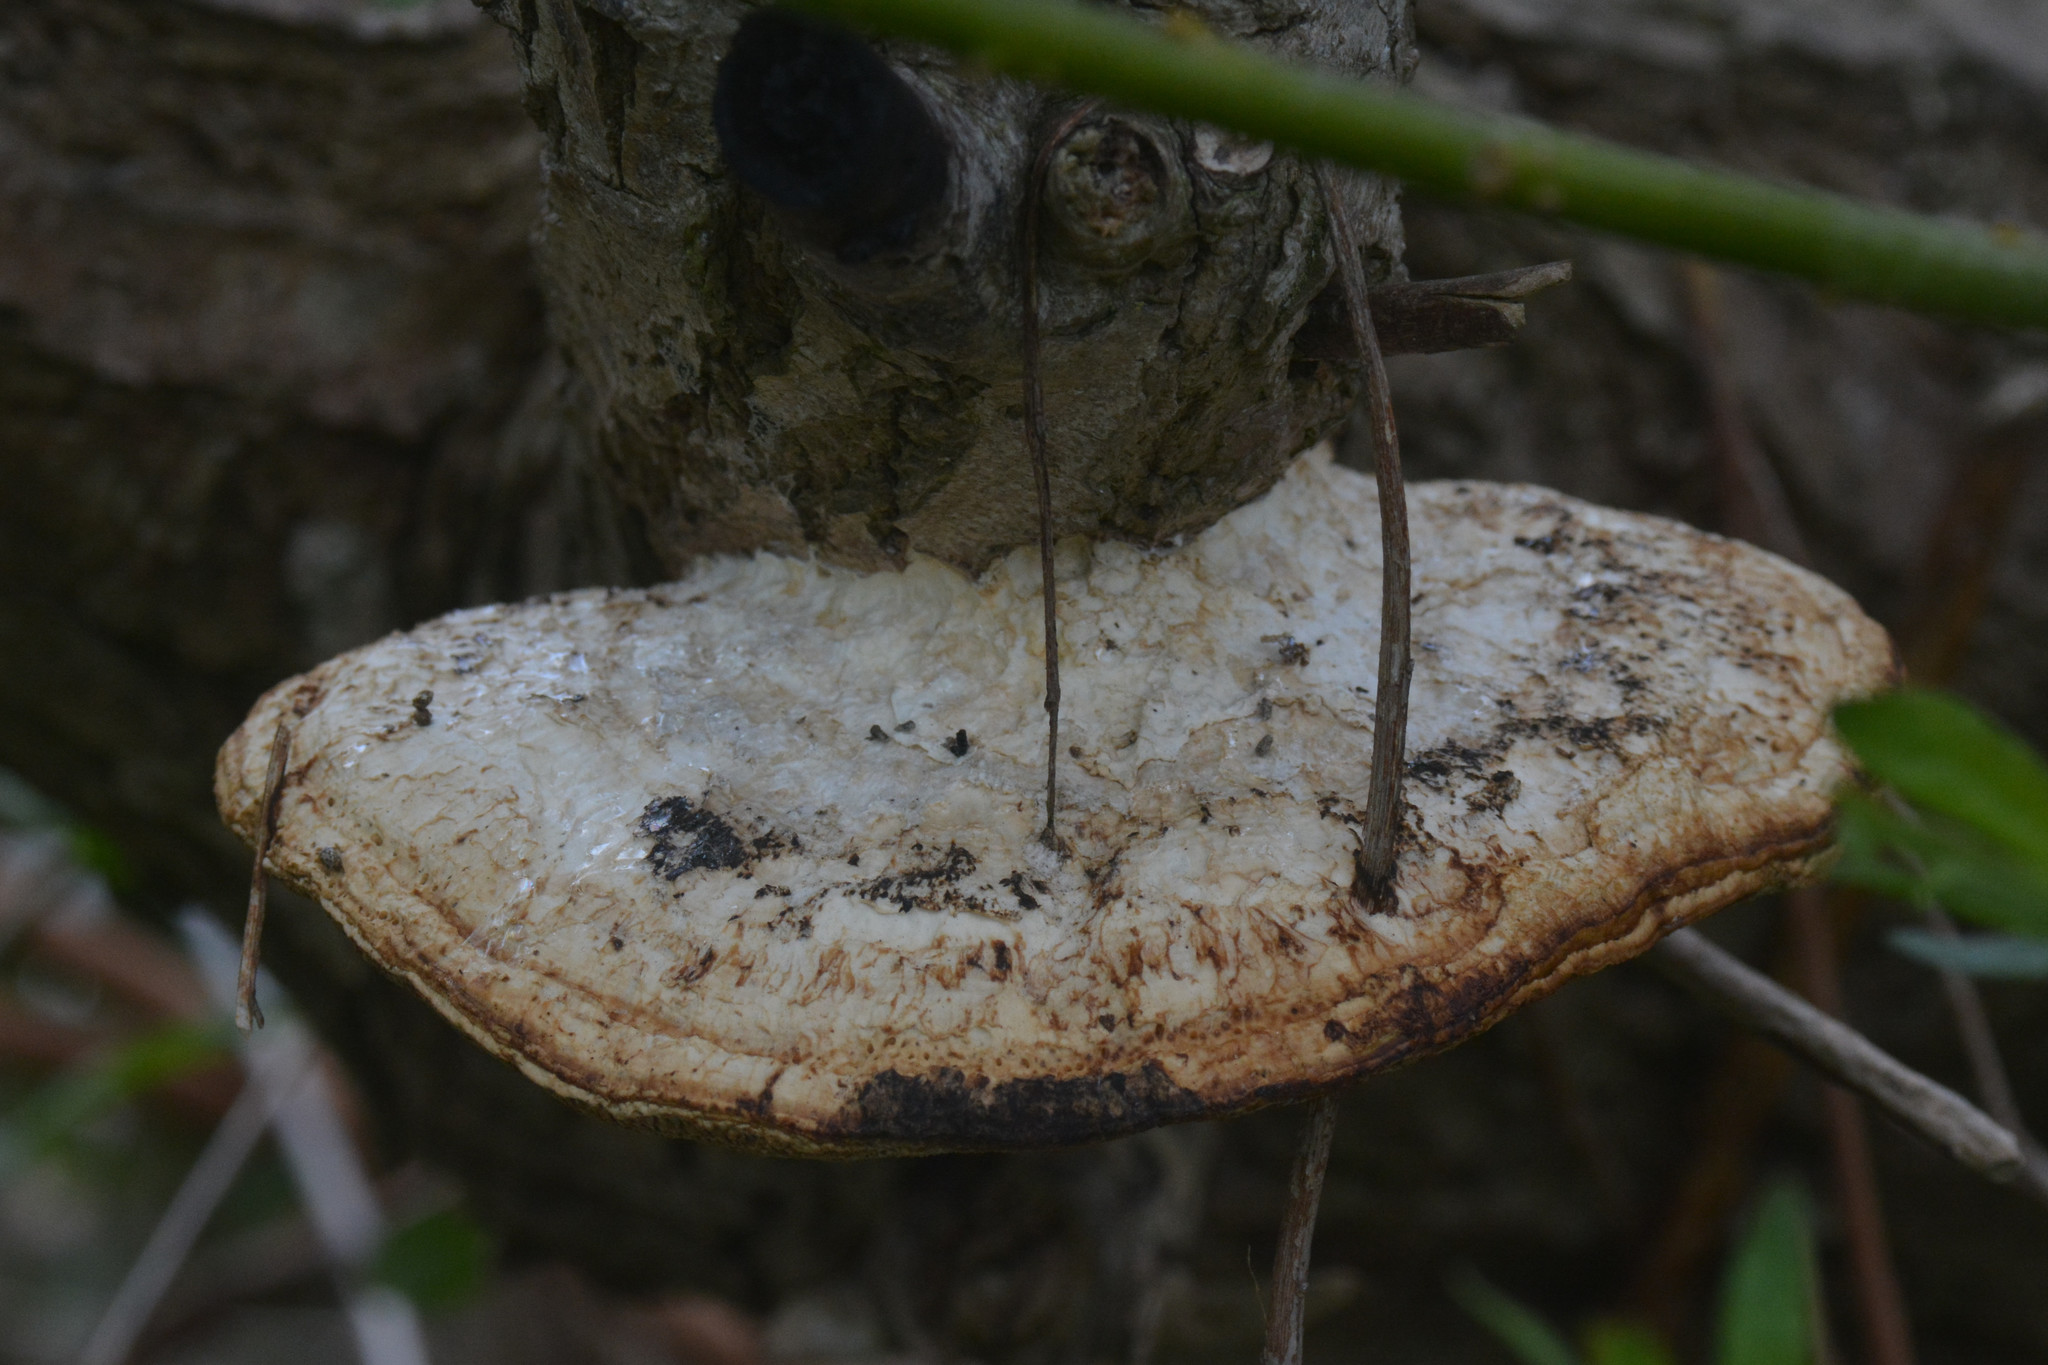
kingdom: Fungi
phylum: Basidiomycota
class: Agaricomycetes
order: Polyporales
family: Polyporaceae
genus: Daedaleopsis
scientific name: Daedaleopsis confragosa
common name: Blushing bracket
